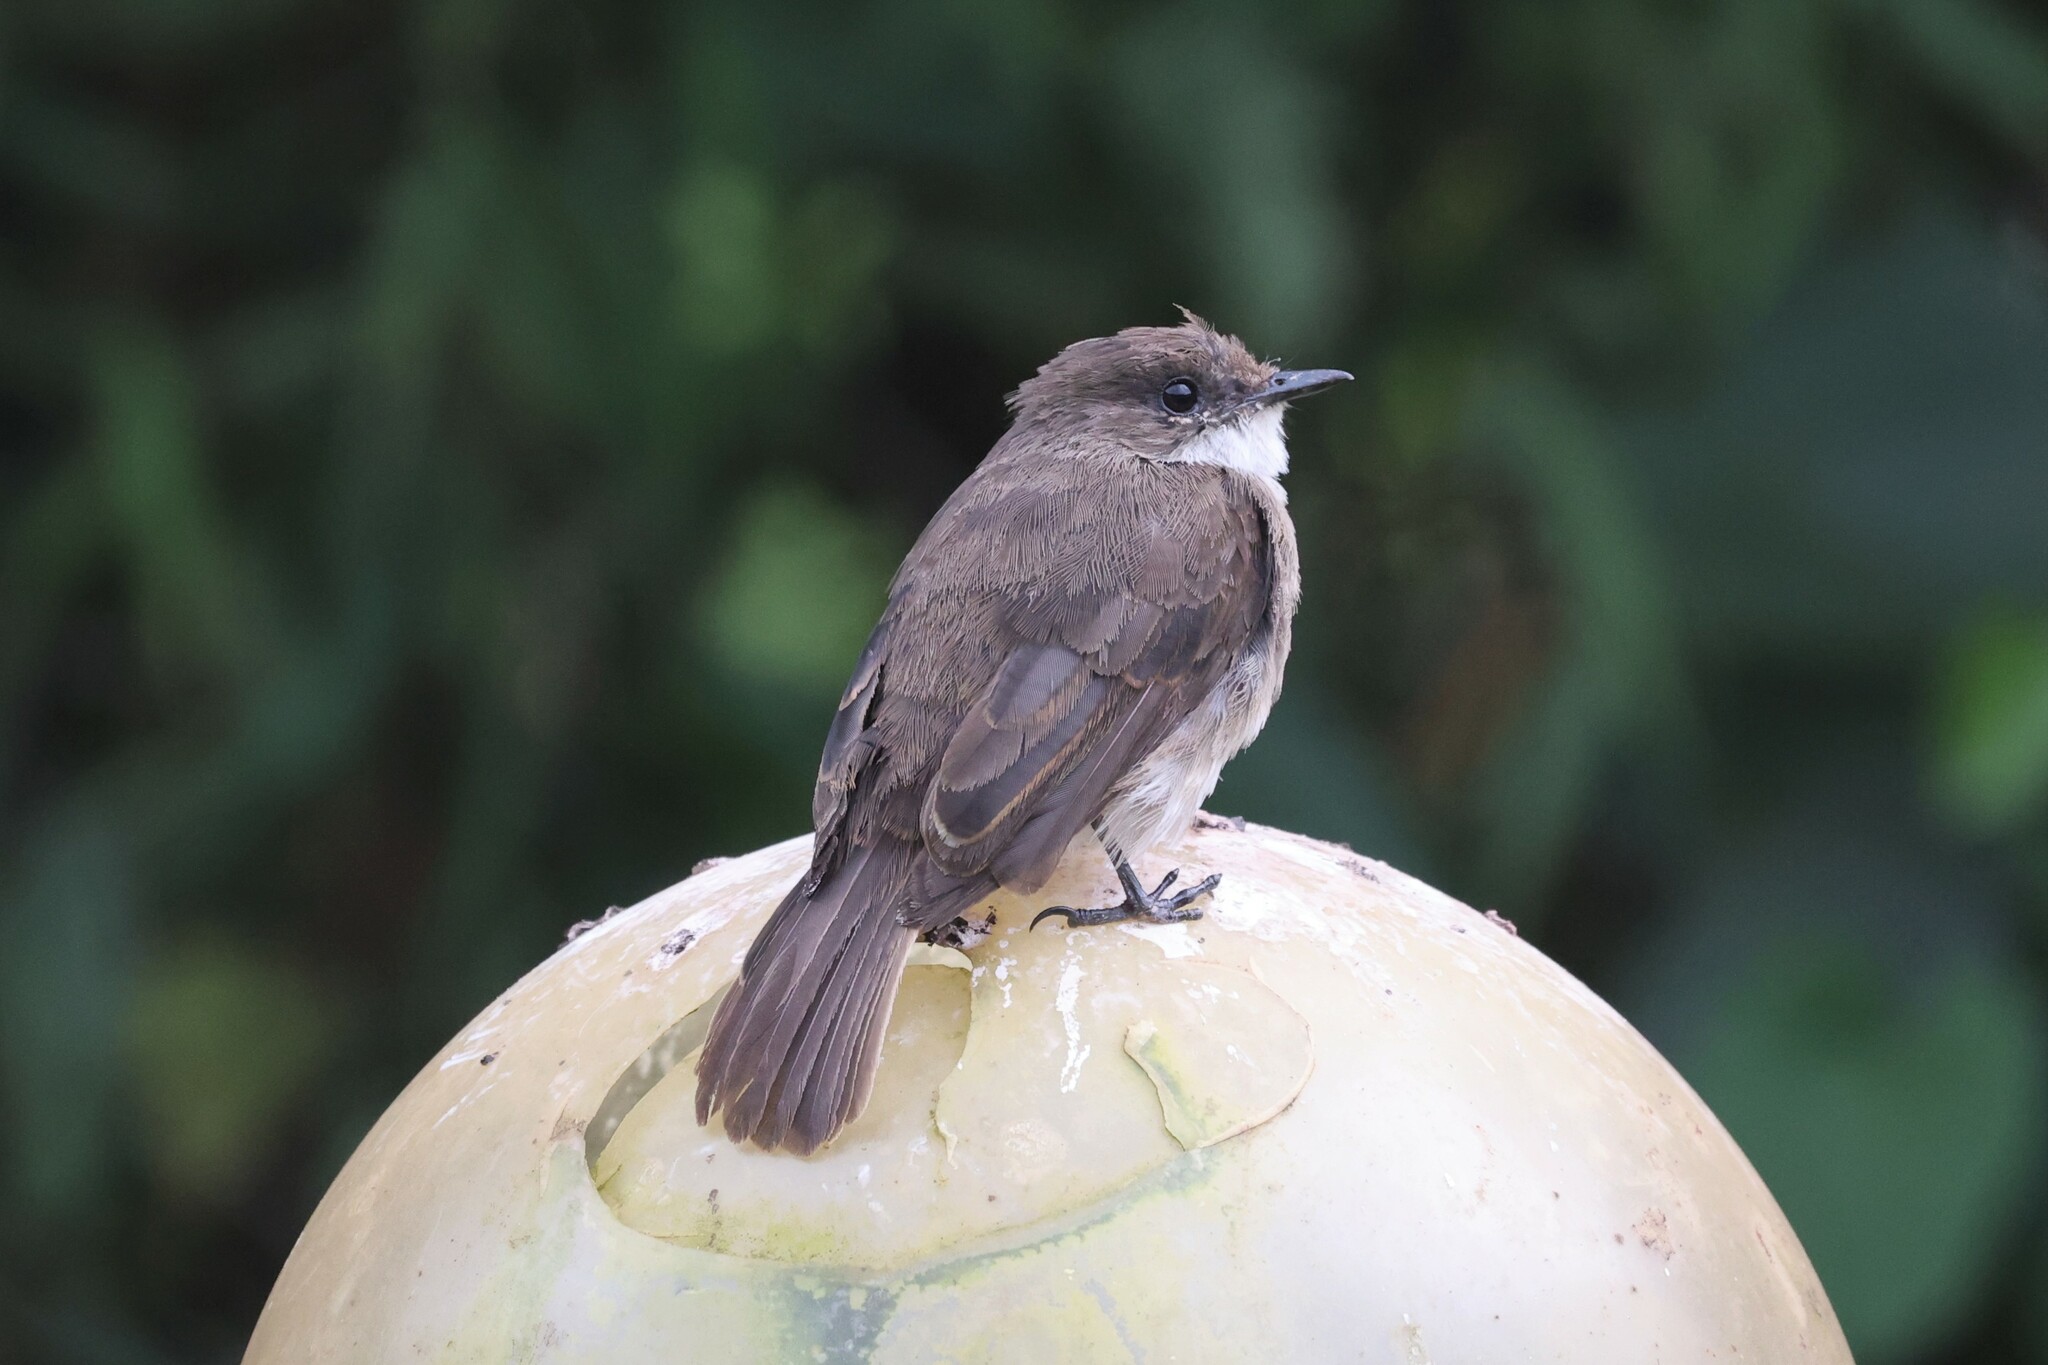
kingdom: Animalia
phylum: Chordata
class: Aves
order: Passeriformes
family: Muscicapidae
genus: Muscicapa
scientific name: Muscicapa aquatica
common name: Swamp flycatcher
